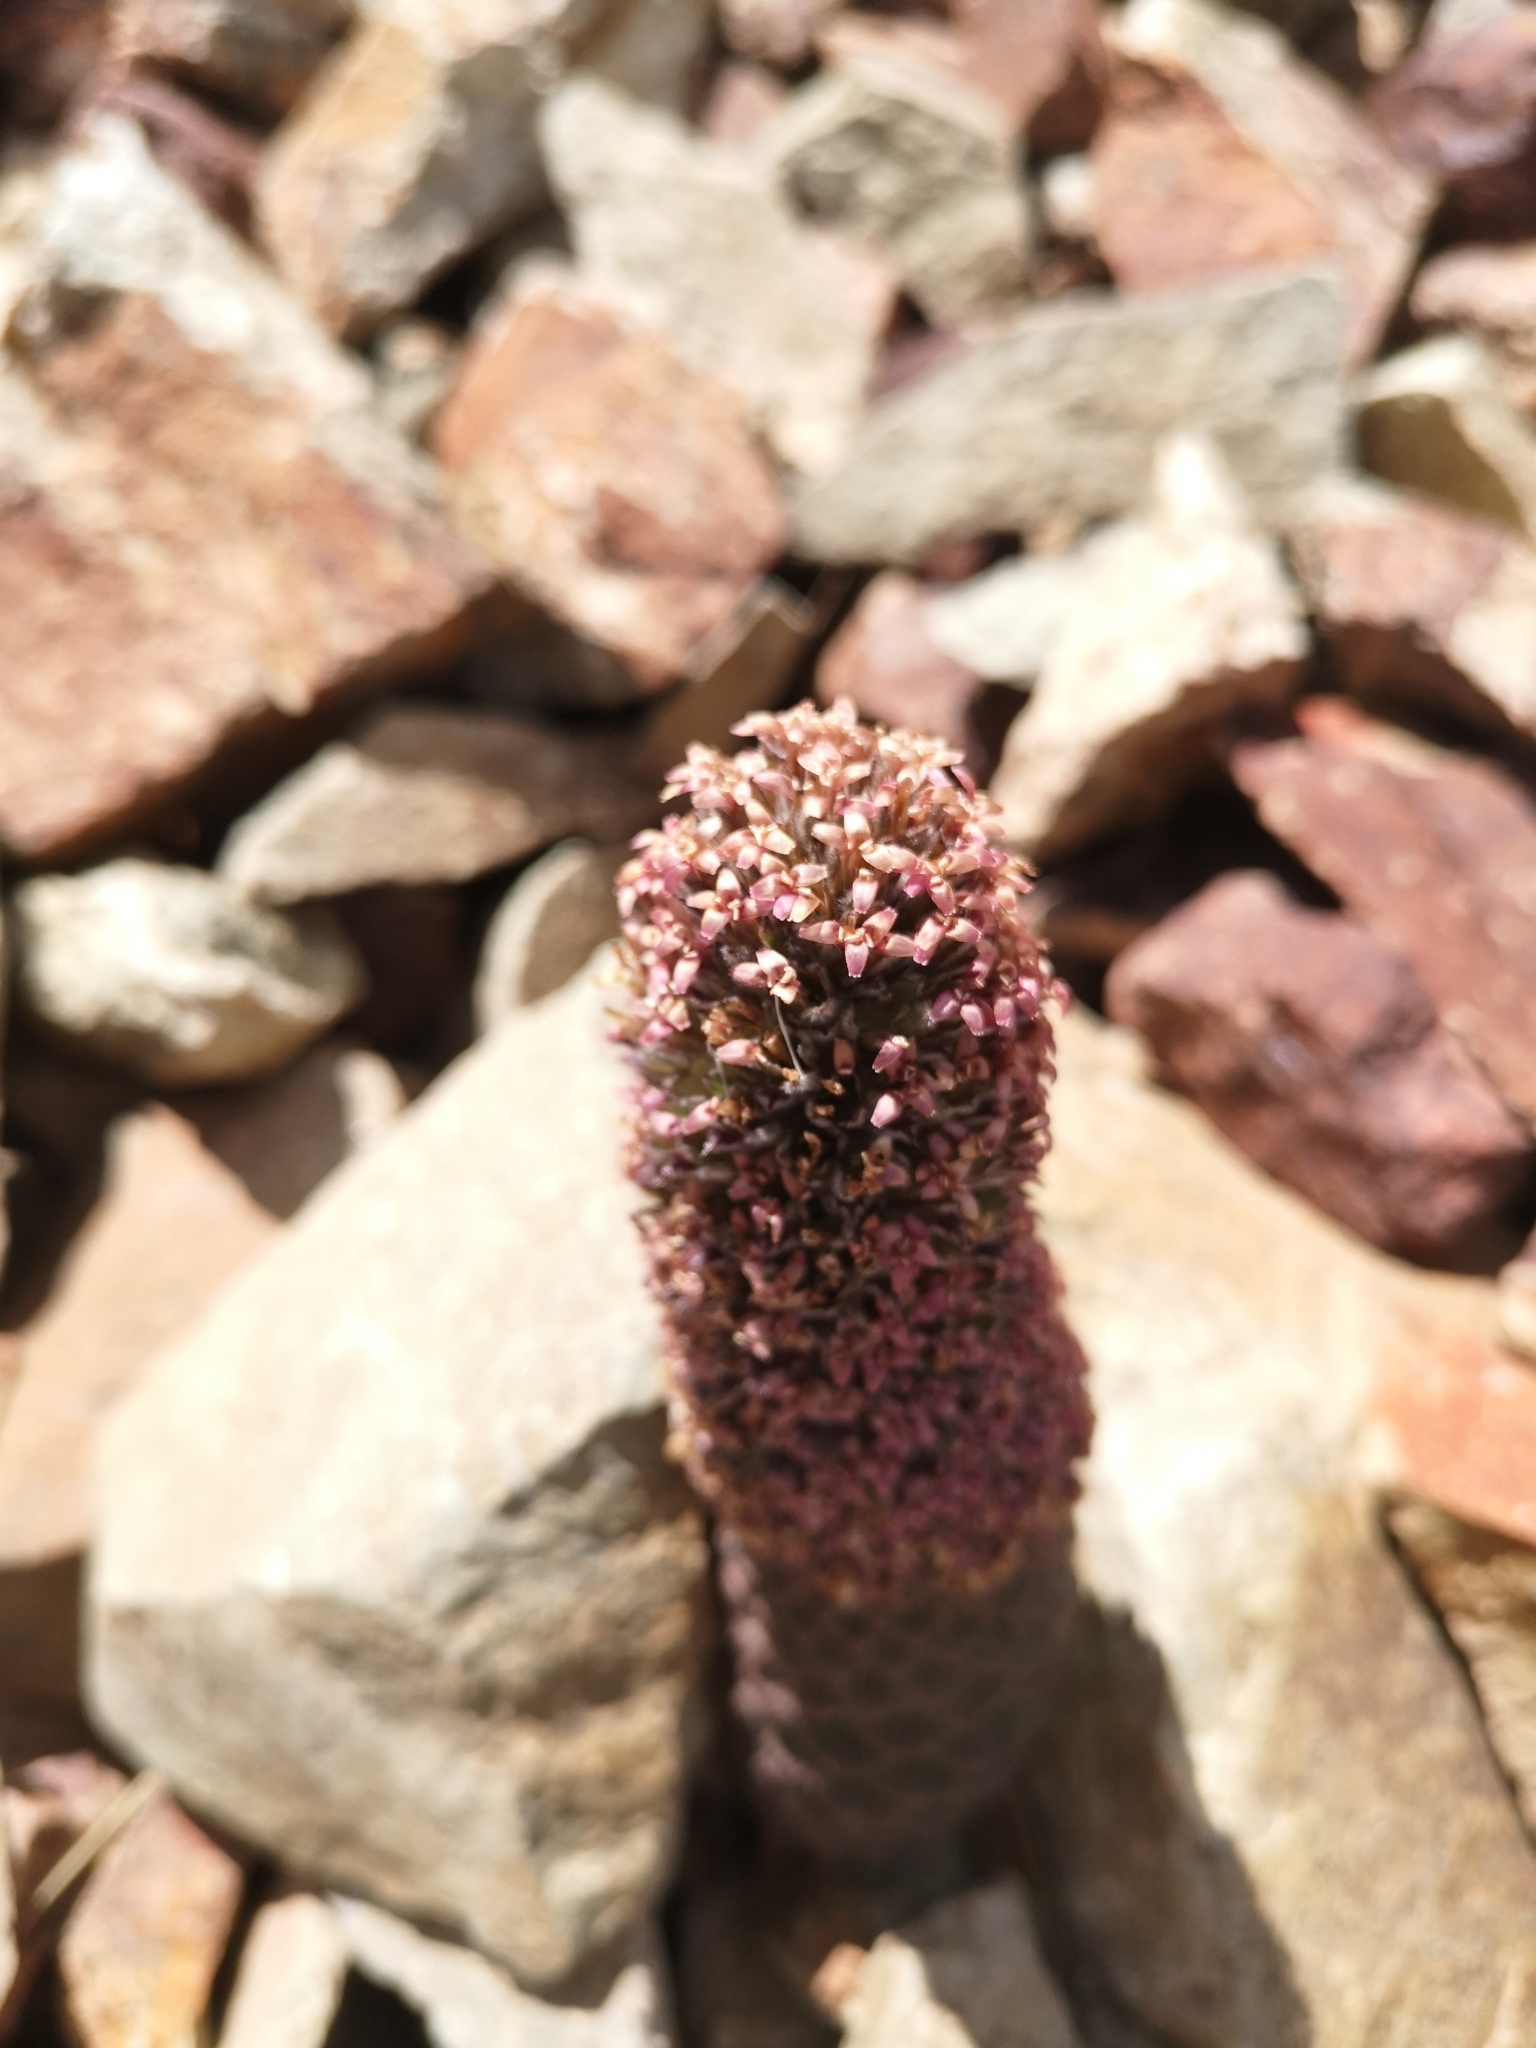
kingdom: Plantae
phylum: Tracheophyta
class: Magnoliopsida
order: Asterales
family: Asteraceae
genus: Nassauvia
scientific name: Nassauvia pinnigera
